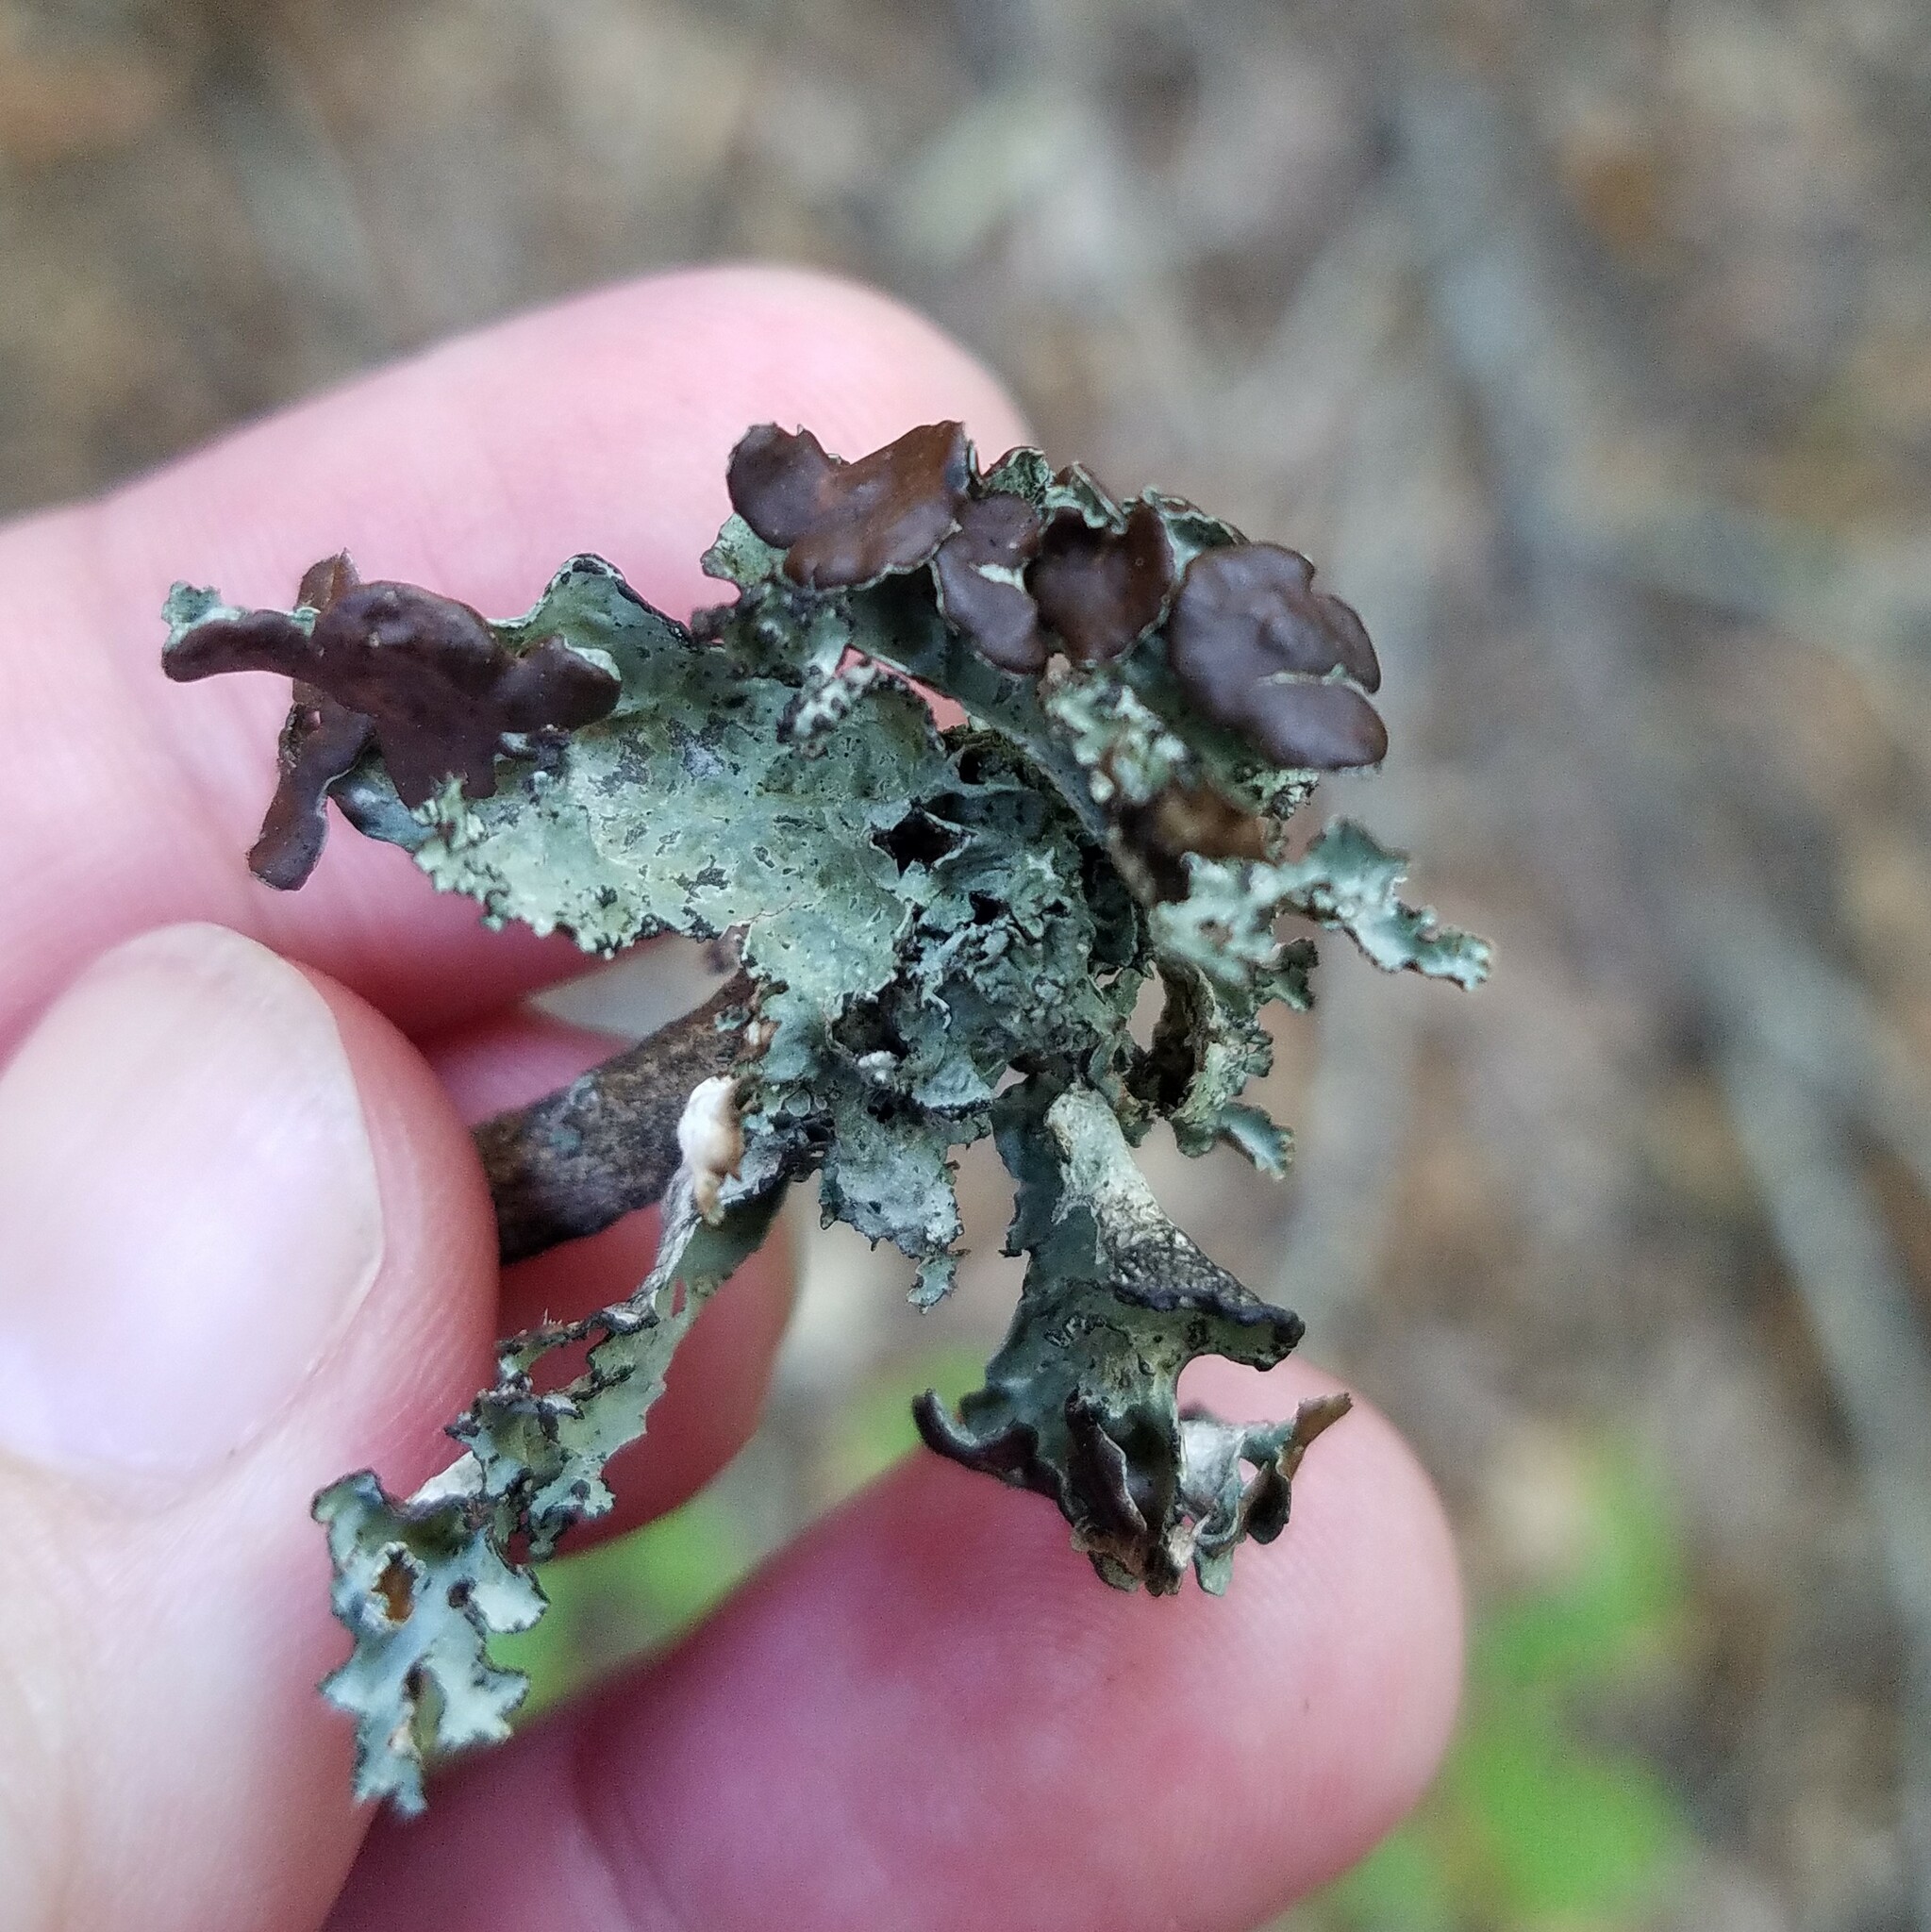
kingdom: Fungi
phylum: Ascomycota
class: Lecanoromycetes
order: Lecanorales
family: Parmeliaceae
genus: Platismatia
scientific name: Platismatia tuckermanii
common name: Crumpled rag lichen
